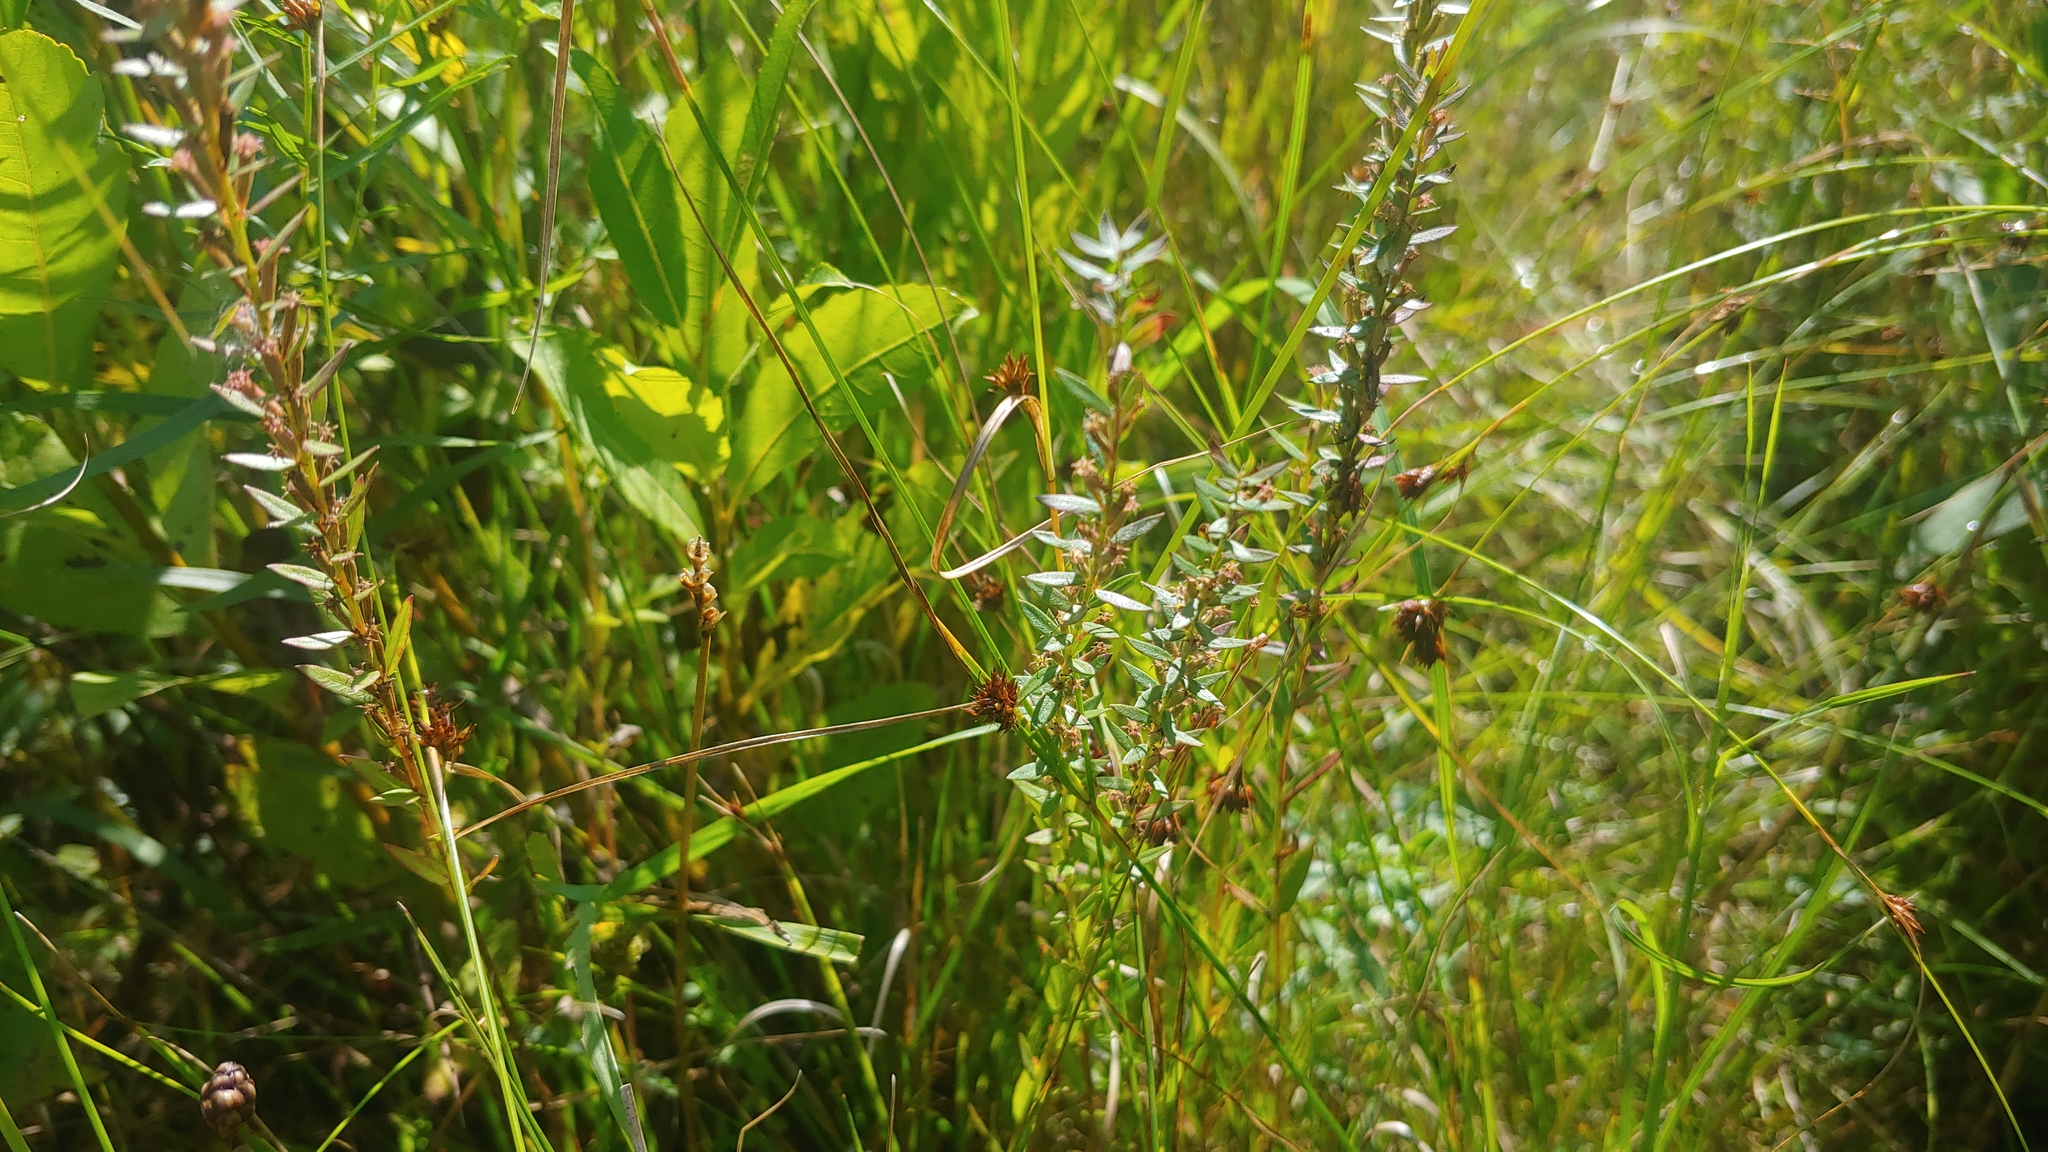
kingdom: Plantae
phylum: Tracheophyta
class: Magnoliopsida
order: Myrtales
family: Lythraceae
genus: Lythrum
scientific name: Lythrum alatum
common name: Winged loosestrife
